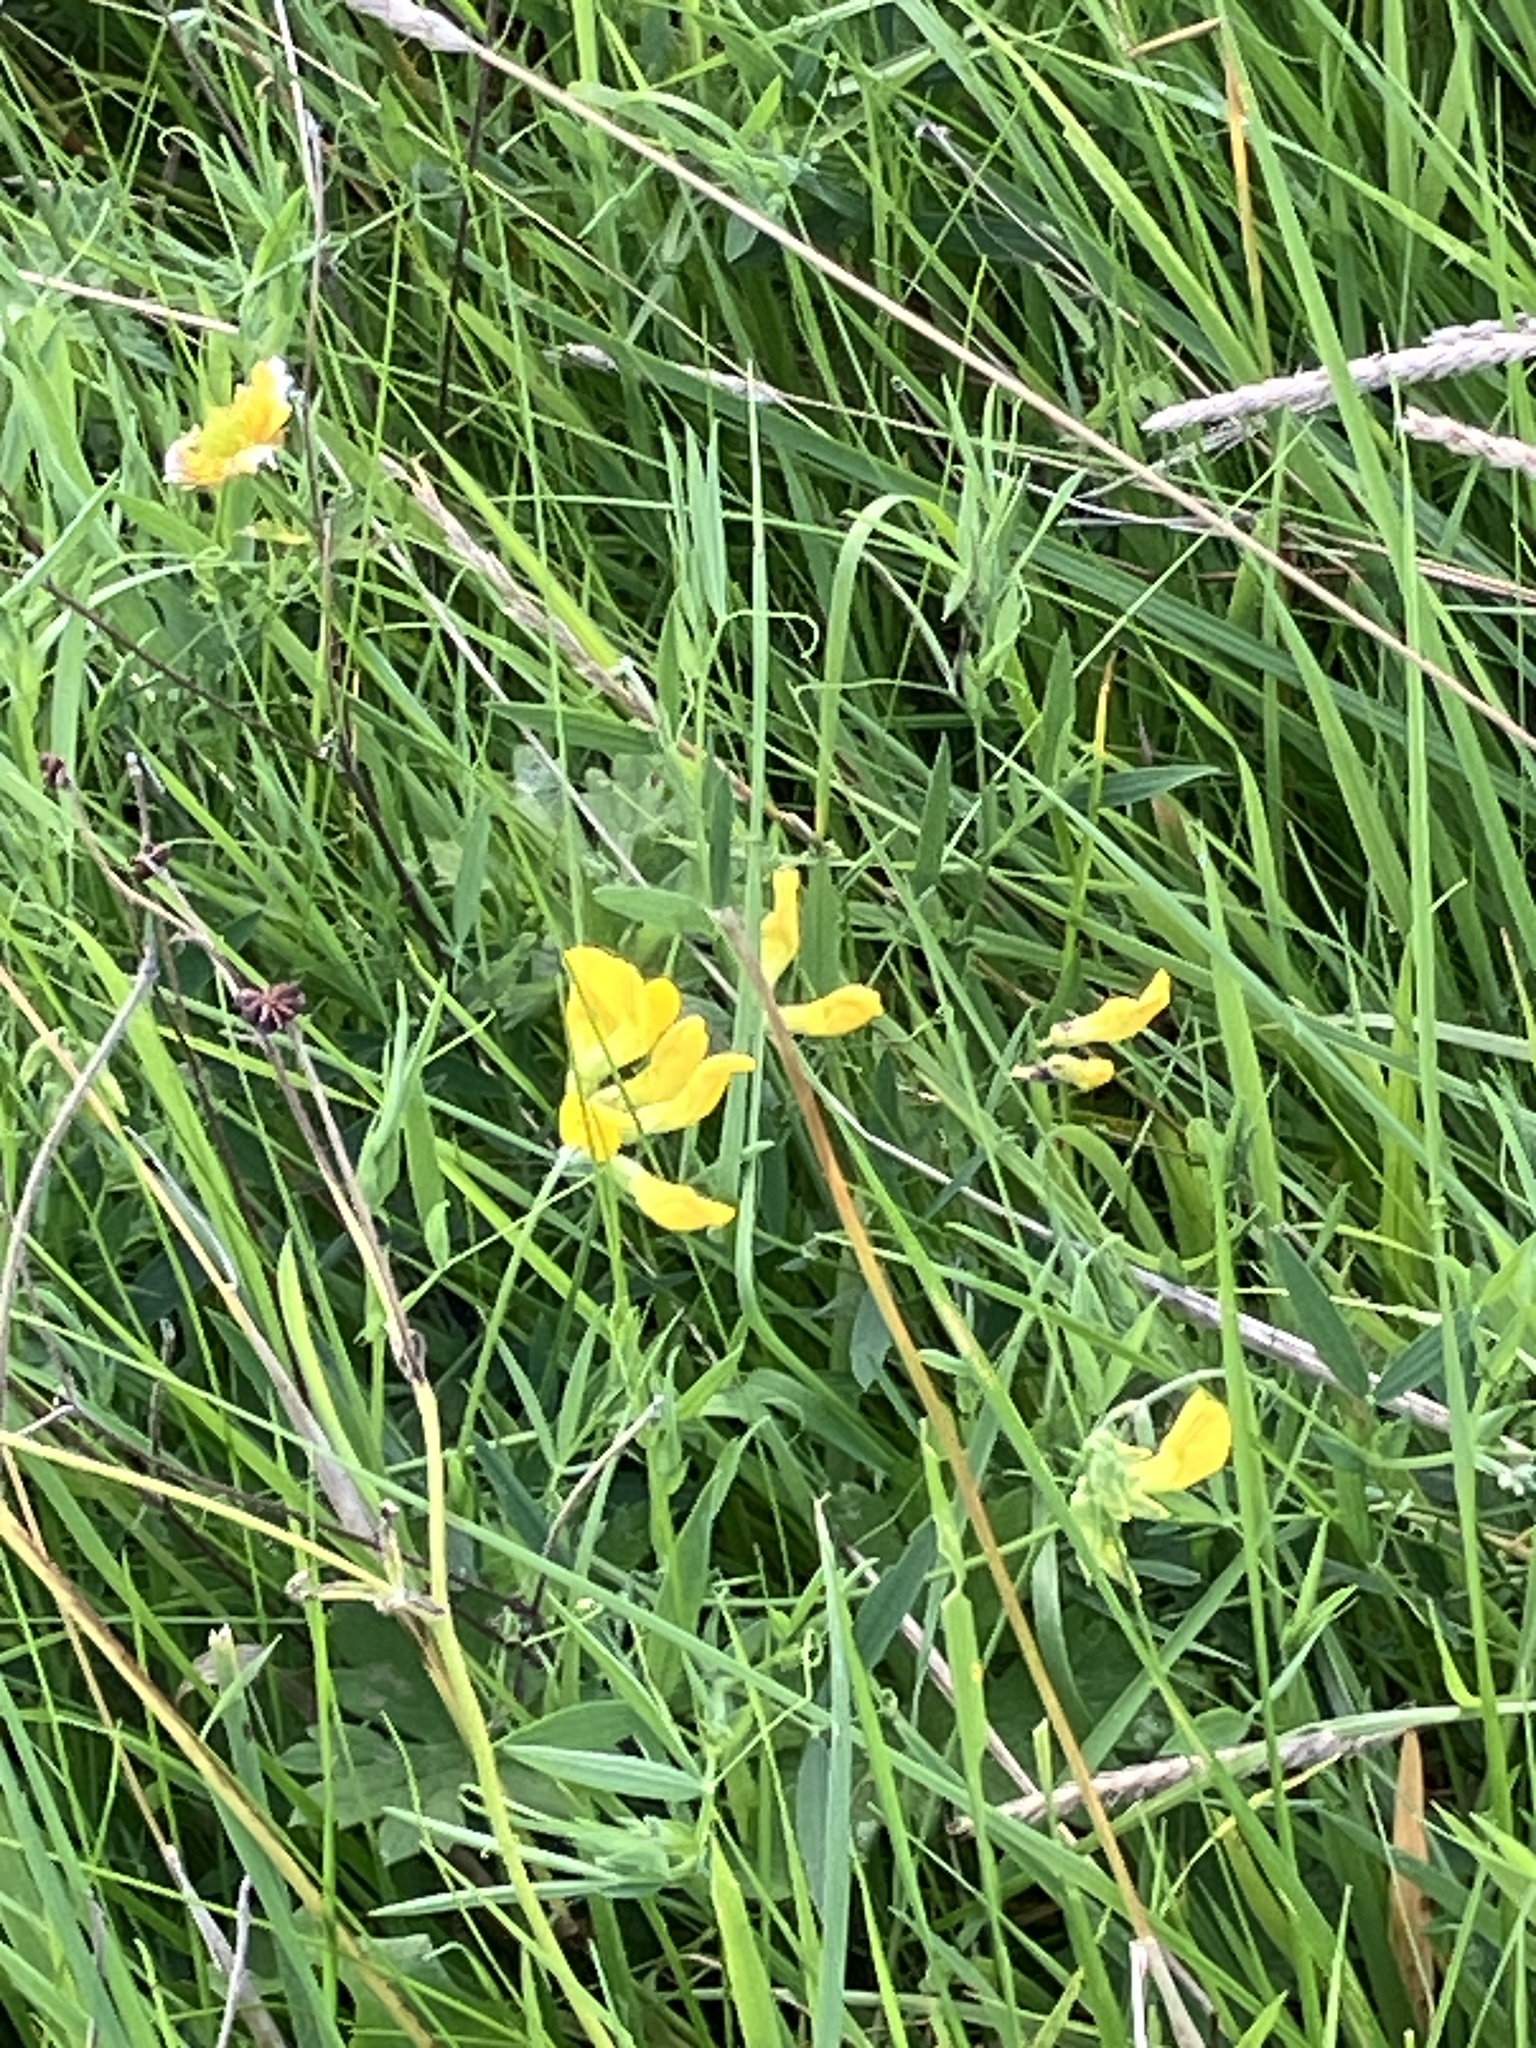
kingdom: Plantae
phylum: Tracheophyta
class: Magnoliopsida
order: Fabales
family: Fabaceae
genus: Lathyrus
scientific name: Lathyrus pratensis
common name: Meadow vetchling
